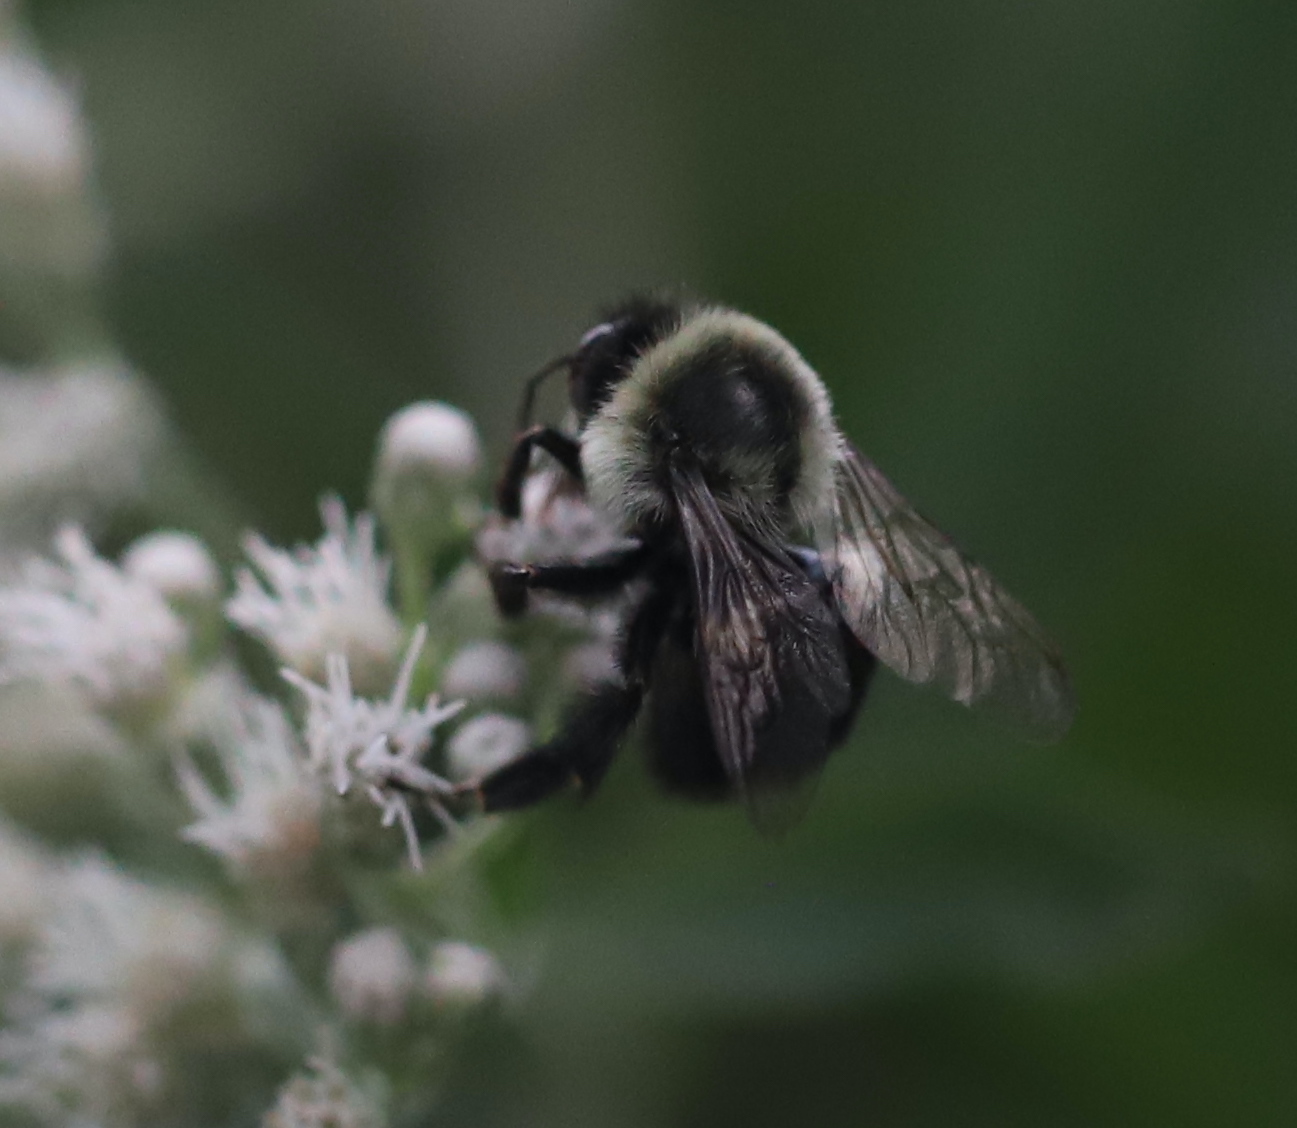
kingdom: Animalia
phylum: Arthropoda
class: Insecta
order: Hymenoptera
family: Apidae
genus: Bombus
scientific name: Bombus impatiens
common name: Common eastern bumble bee
